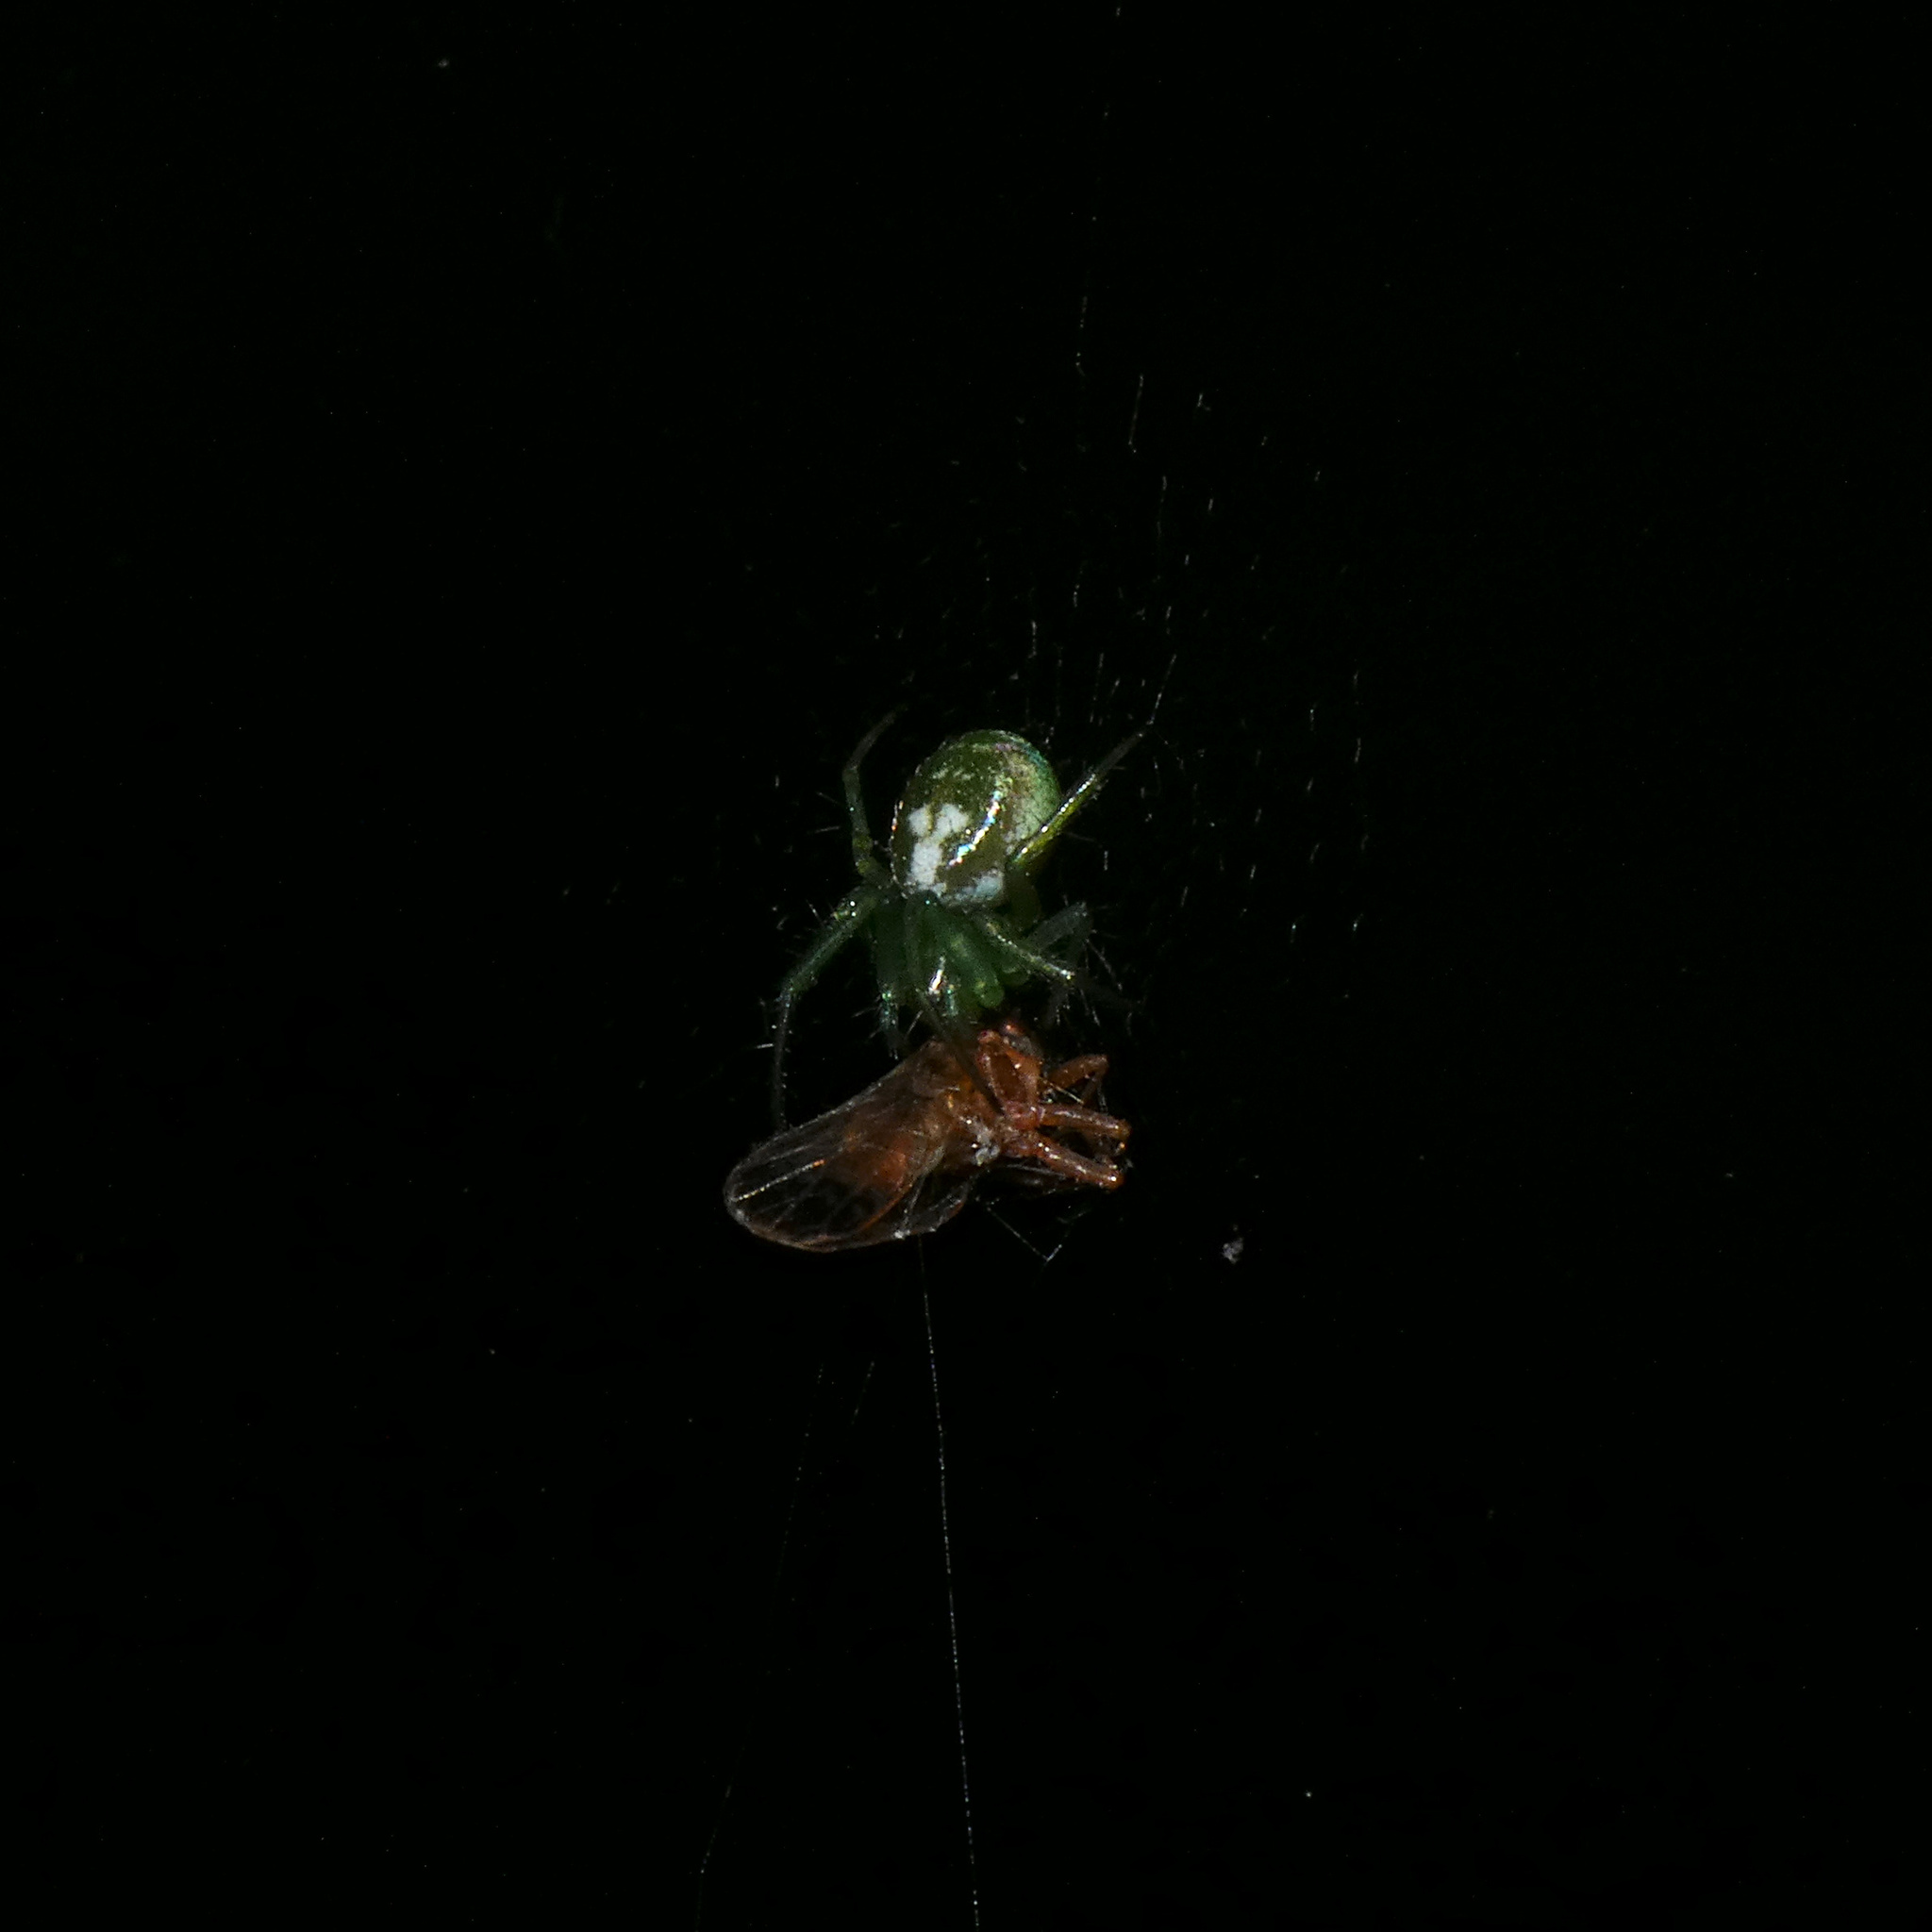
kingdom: Animalia
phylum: Arthropoda
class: Arachnida
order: Araneae
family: Araneidae
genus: Prasonica
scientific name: Prasonica nigrotaeniata
